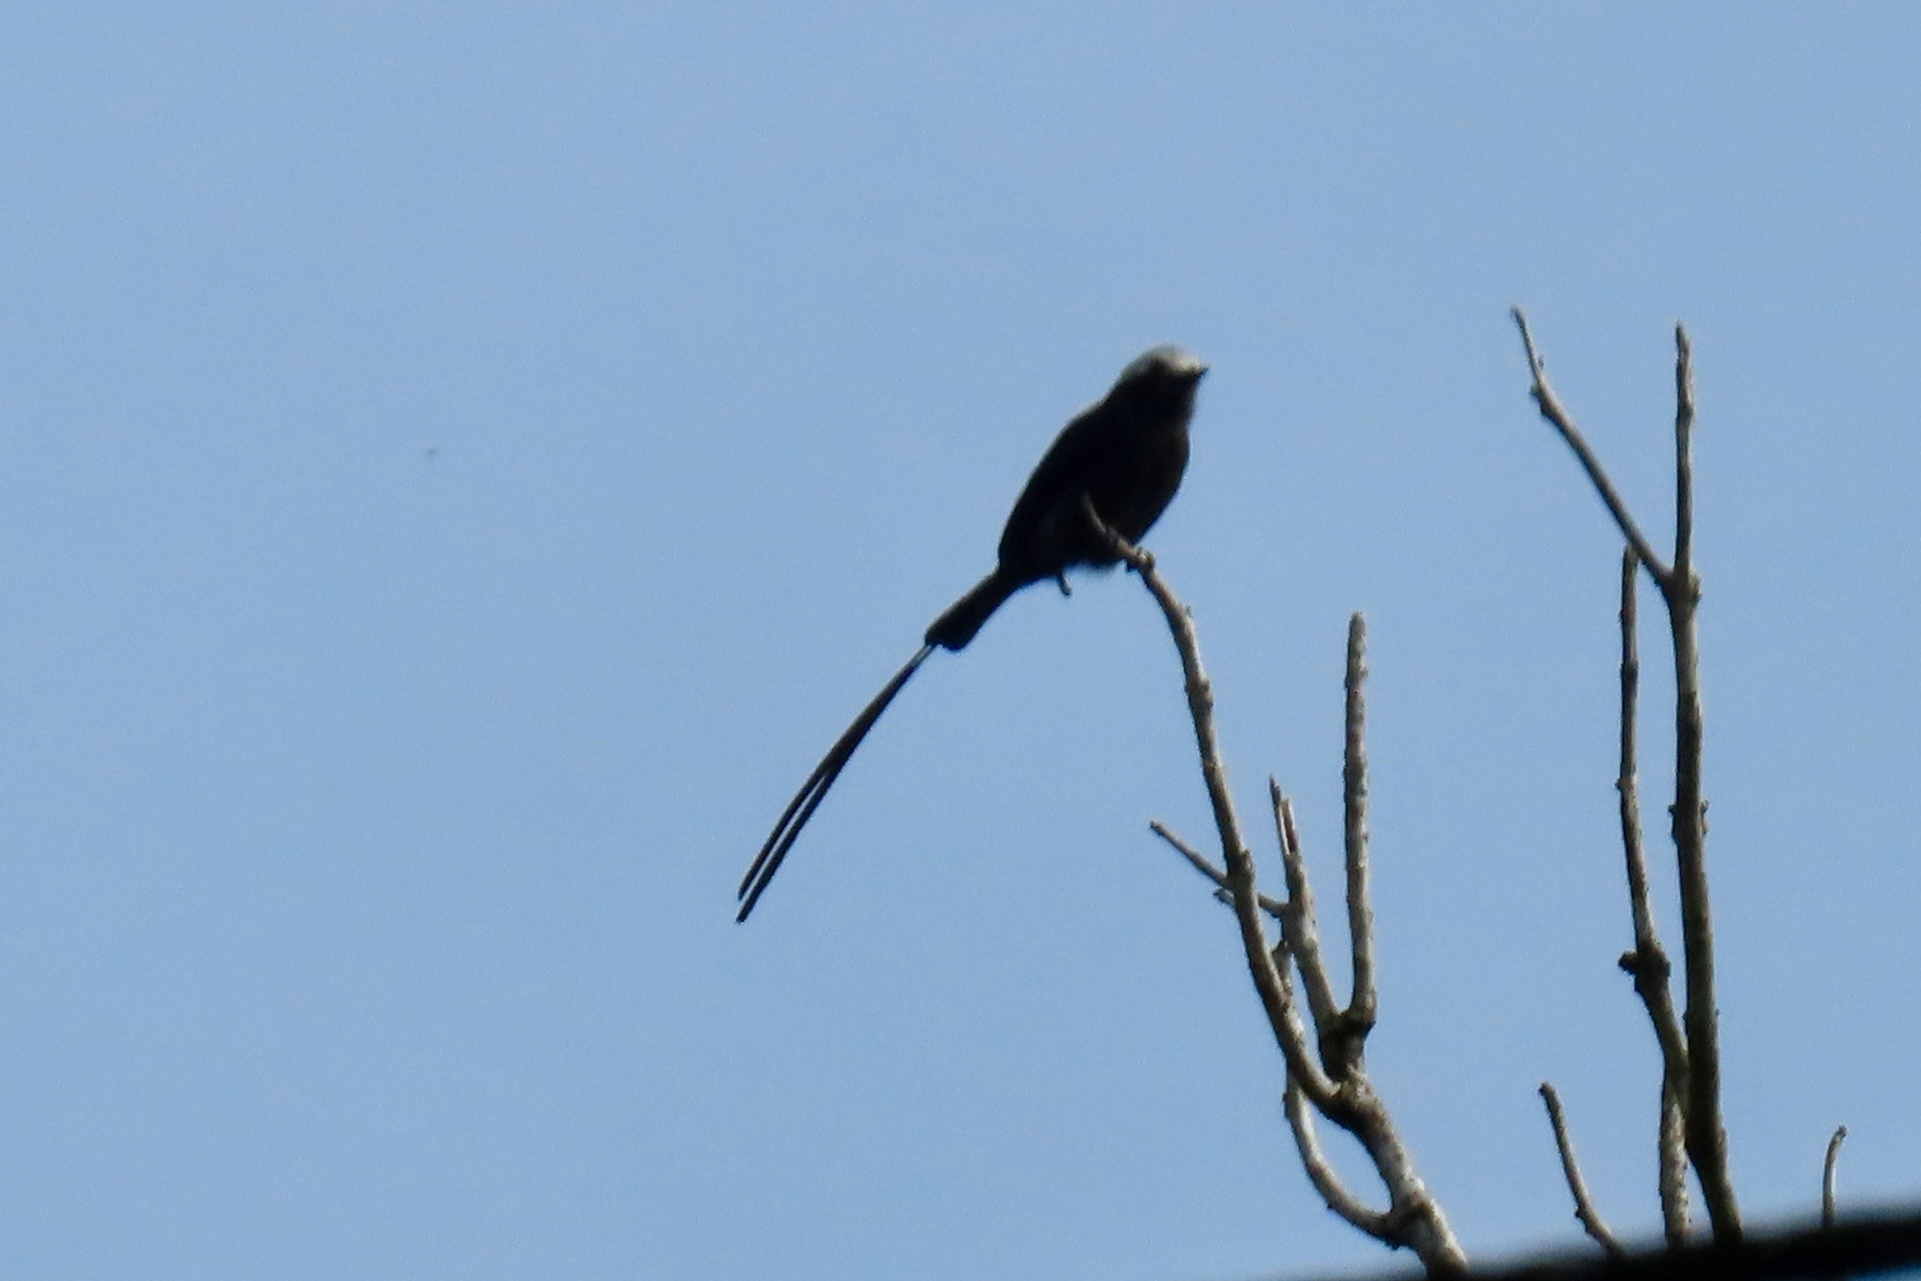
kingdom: Animalia
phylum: Chordata
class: Aves
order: Passeriformes
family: Tyrannidae
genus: Colonia
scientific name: Colonia colonus
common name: Long-tailed tyrant
